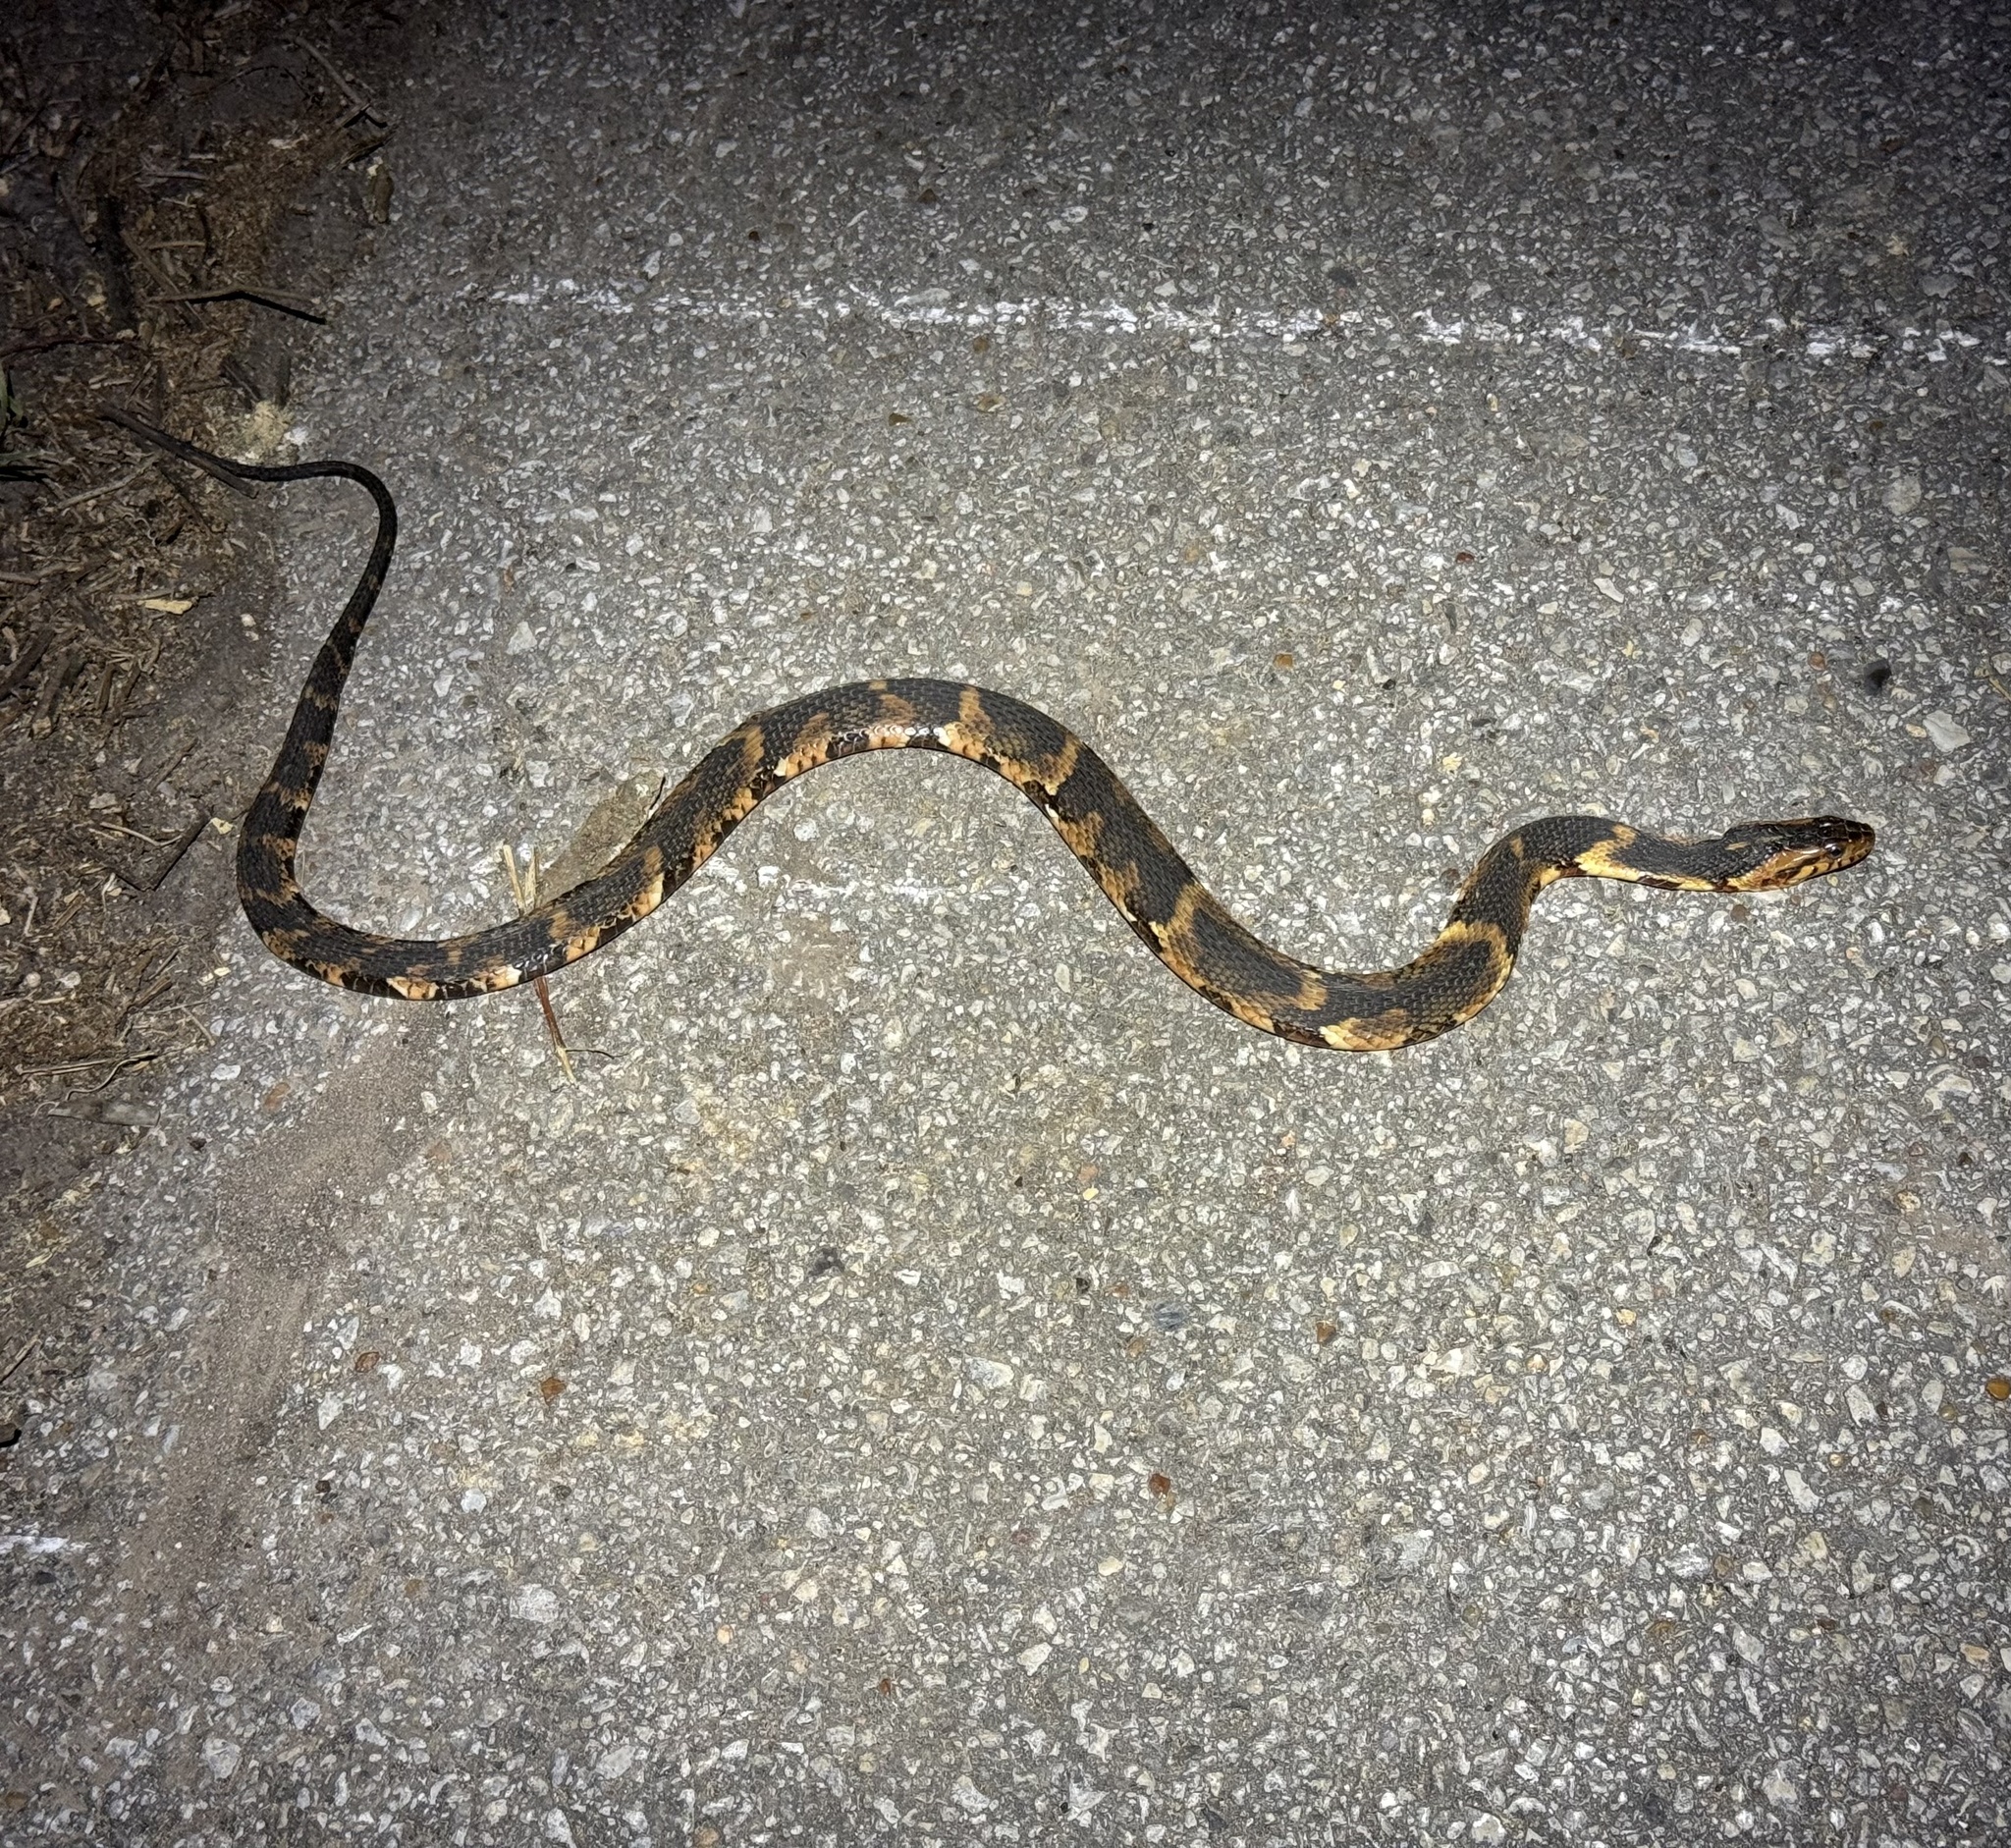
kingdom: Animalia
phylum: Chordata
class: Squamata
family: Colubridae
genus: Nerodia
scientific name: Nerodia fasciata
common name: Southern water snake
